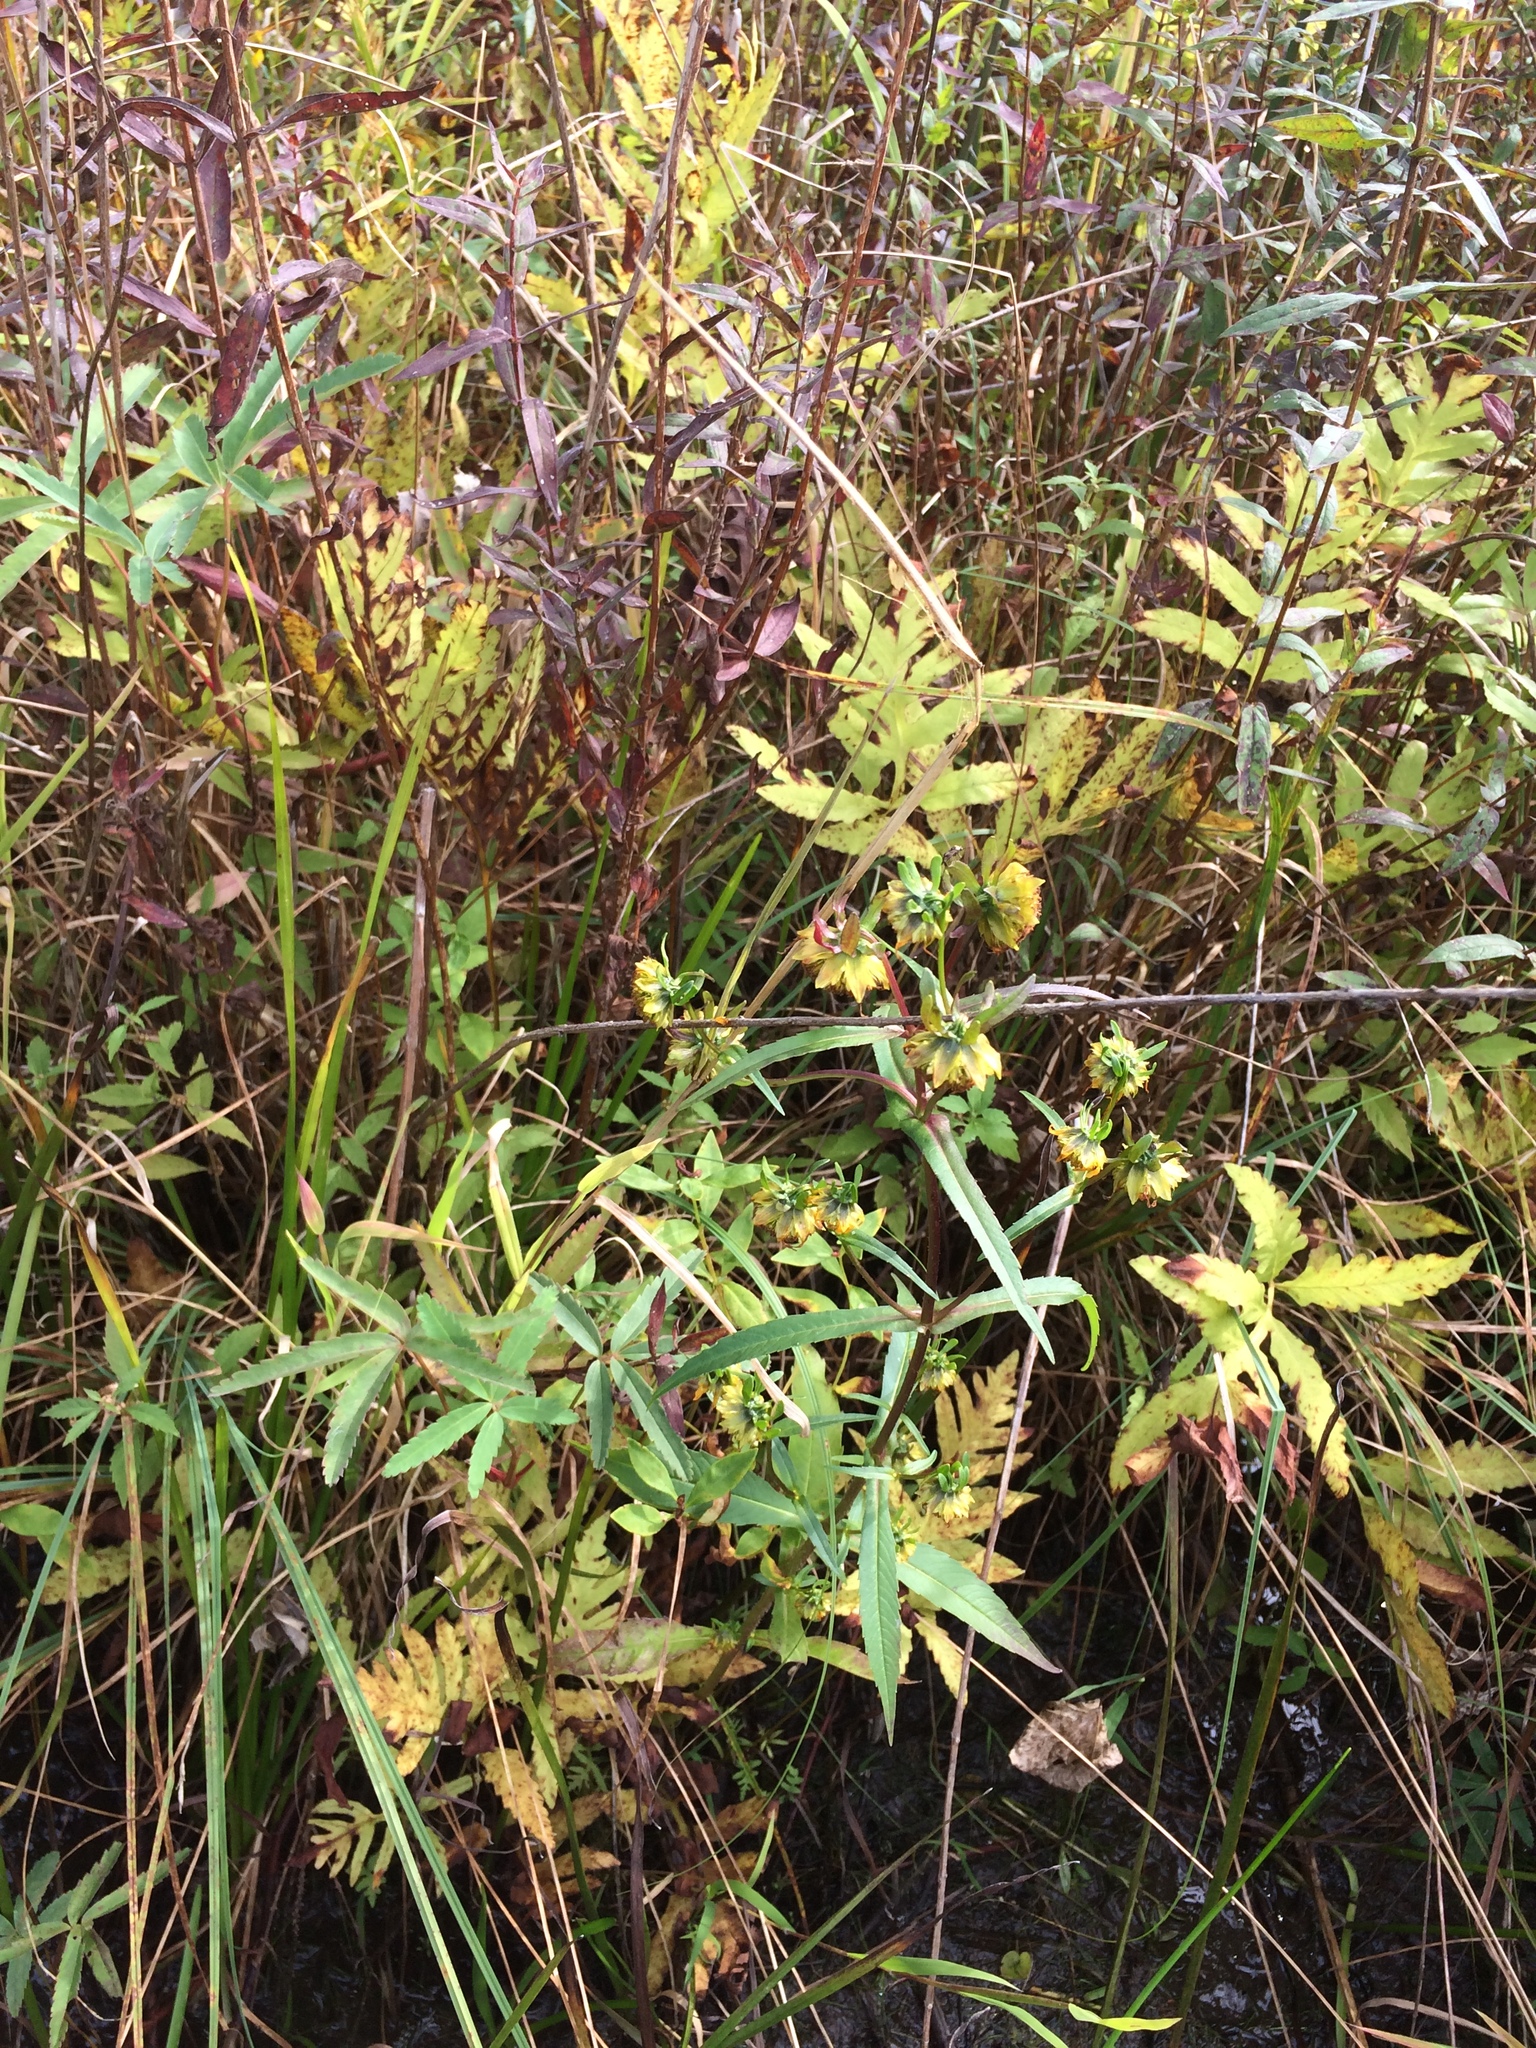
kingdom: Plantae
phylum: Tracheophyta
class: Magnoliopsida
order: Asterales
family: Asteraceae
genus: Bidens
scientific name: Bidens cernua
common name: Nodding bur-marigold
